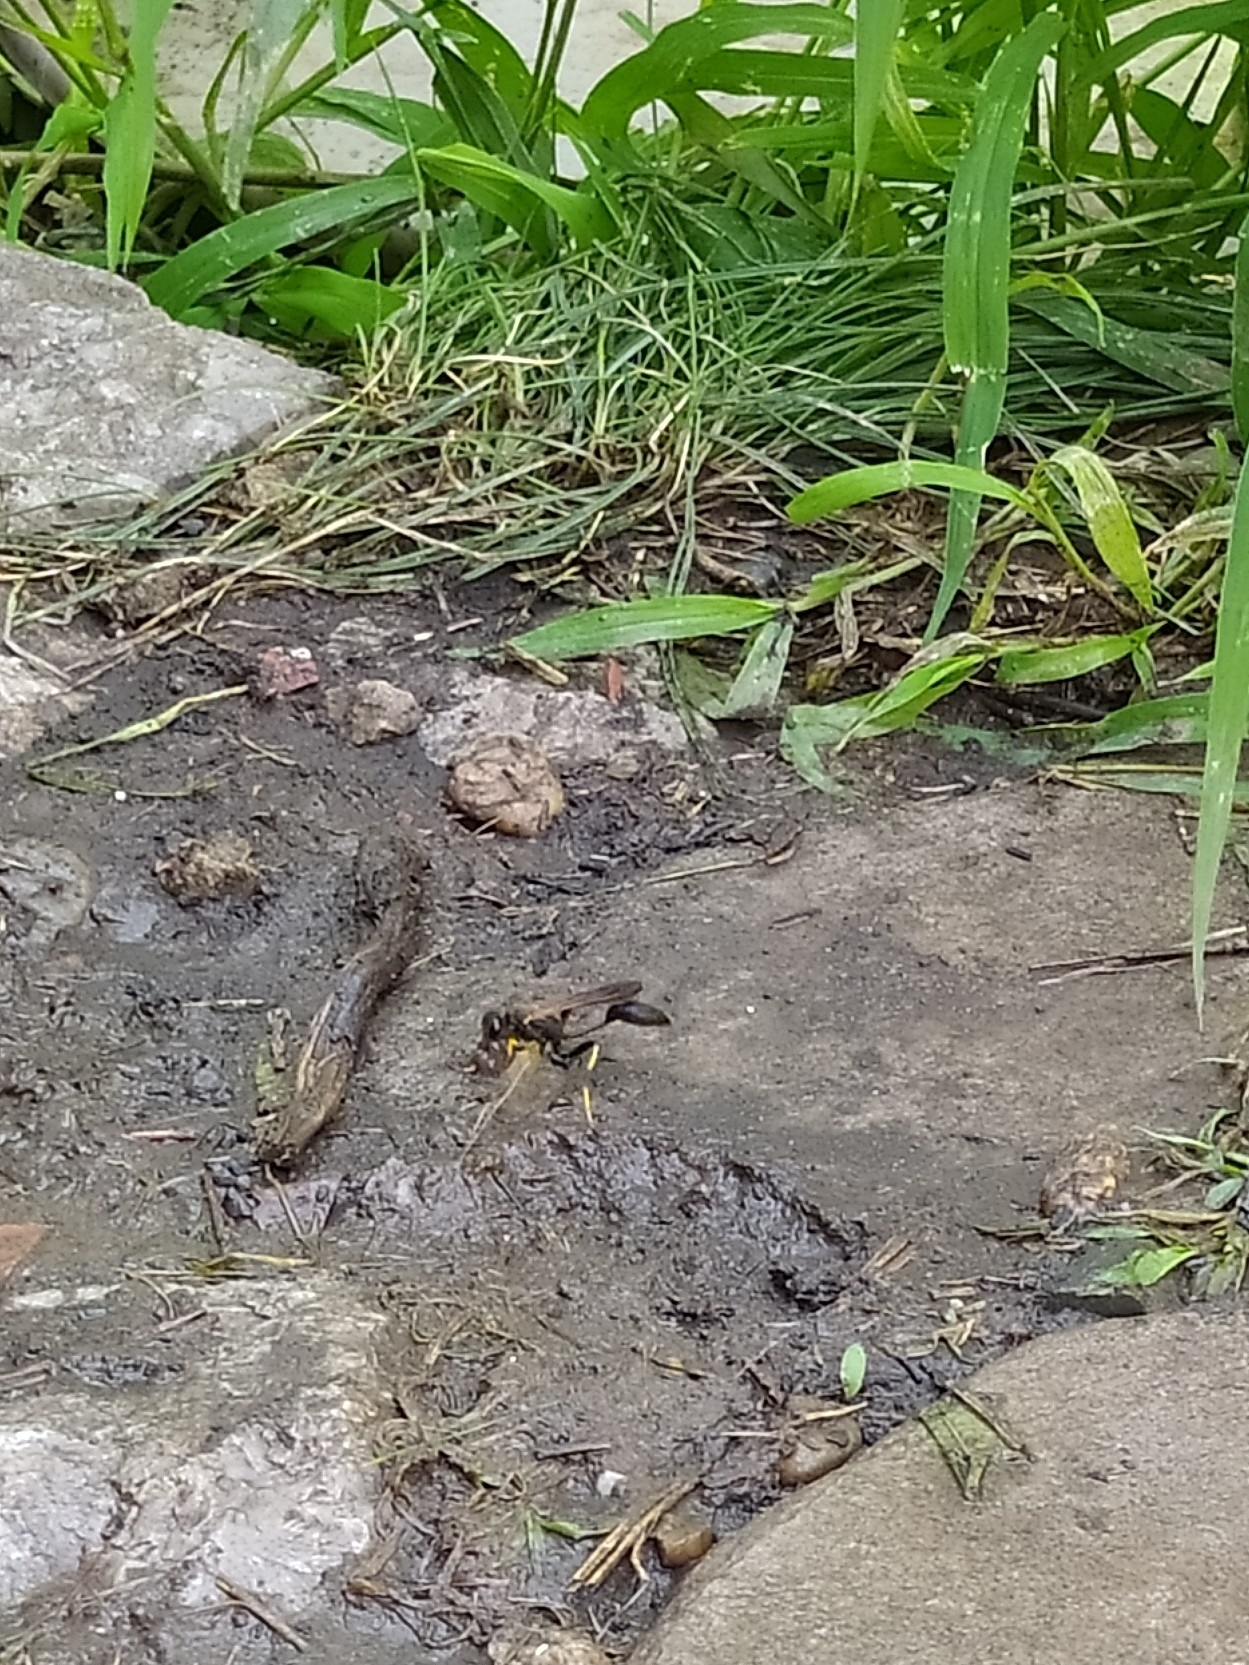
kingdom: Animalia
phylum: Arthropoda
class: Insecta
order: Hymenoptera
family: Sphecidae
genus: Sceliphron
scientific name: Sceliphron caementarium
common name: Mud dauber
